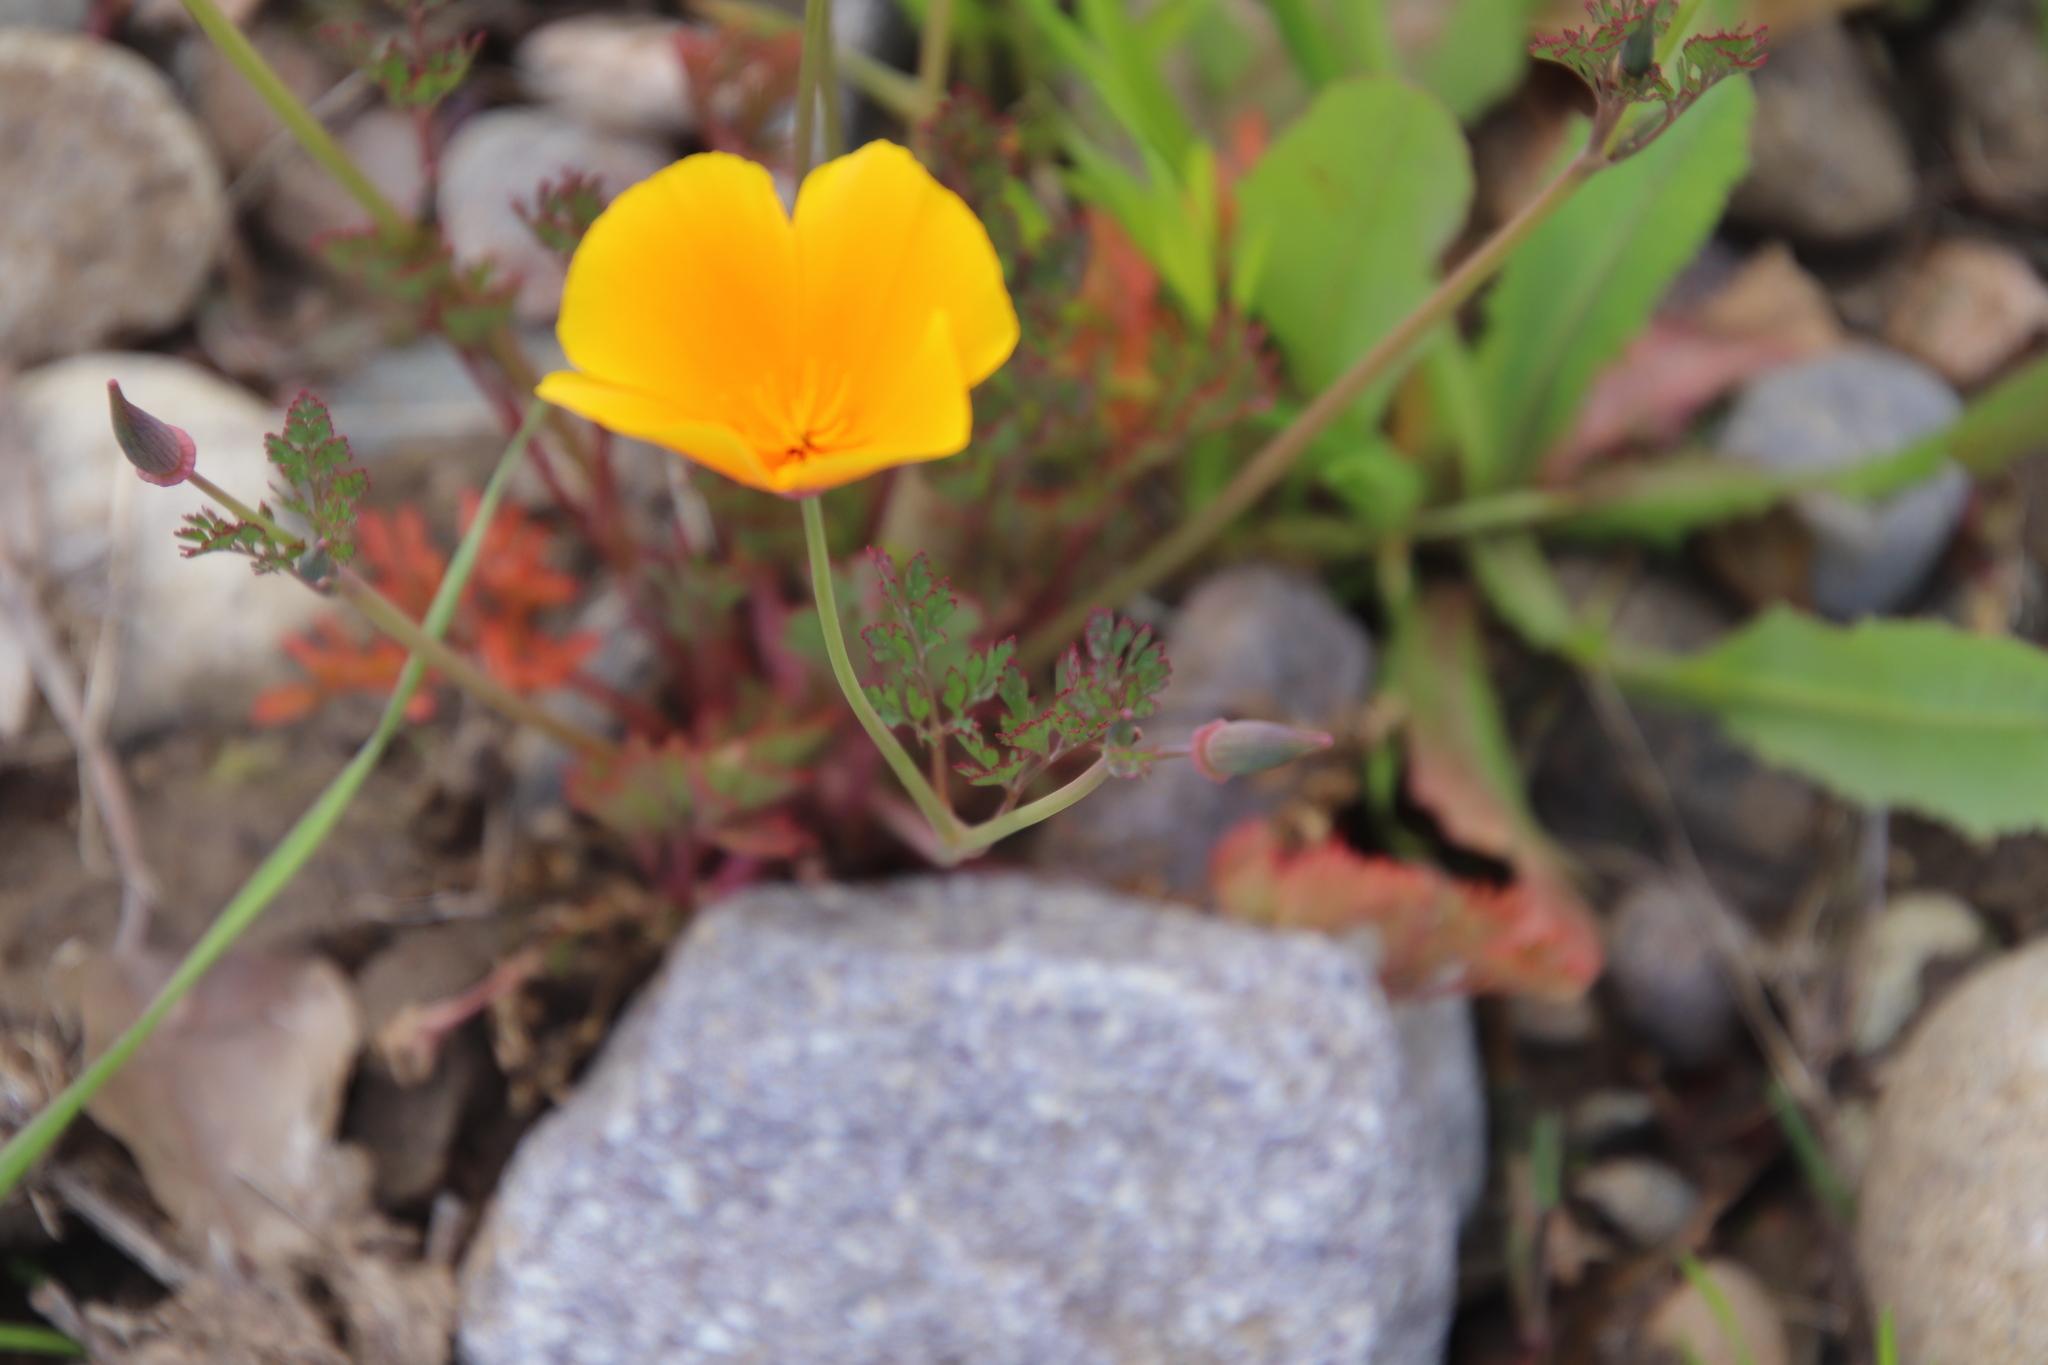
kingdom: Plantae
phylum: Tracheophyta
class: Magnoliopsida
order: Ranunculales
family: Papaveraceae
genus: Eschscholzia
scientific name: Eschscholzia californica
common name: California poppy
